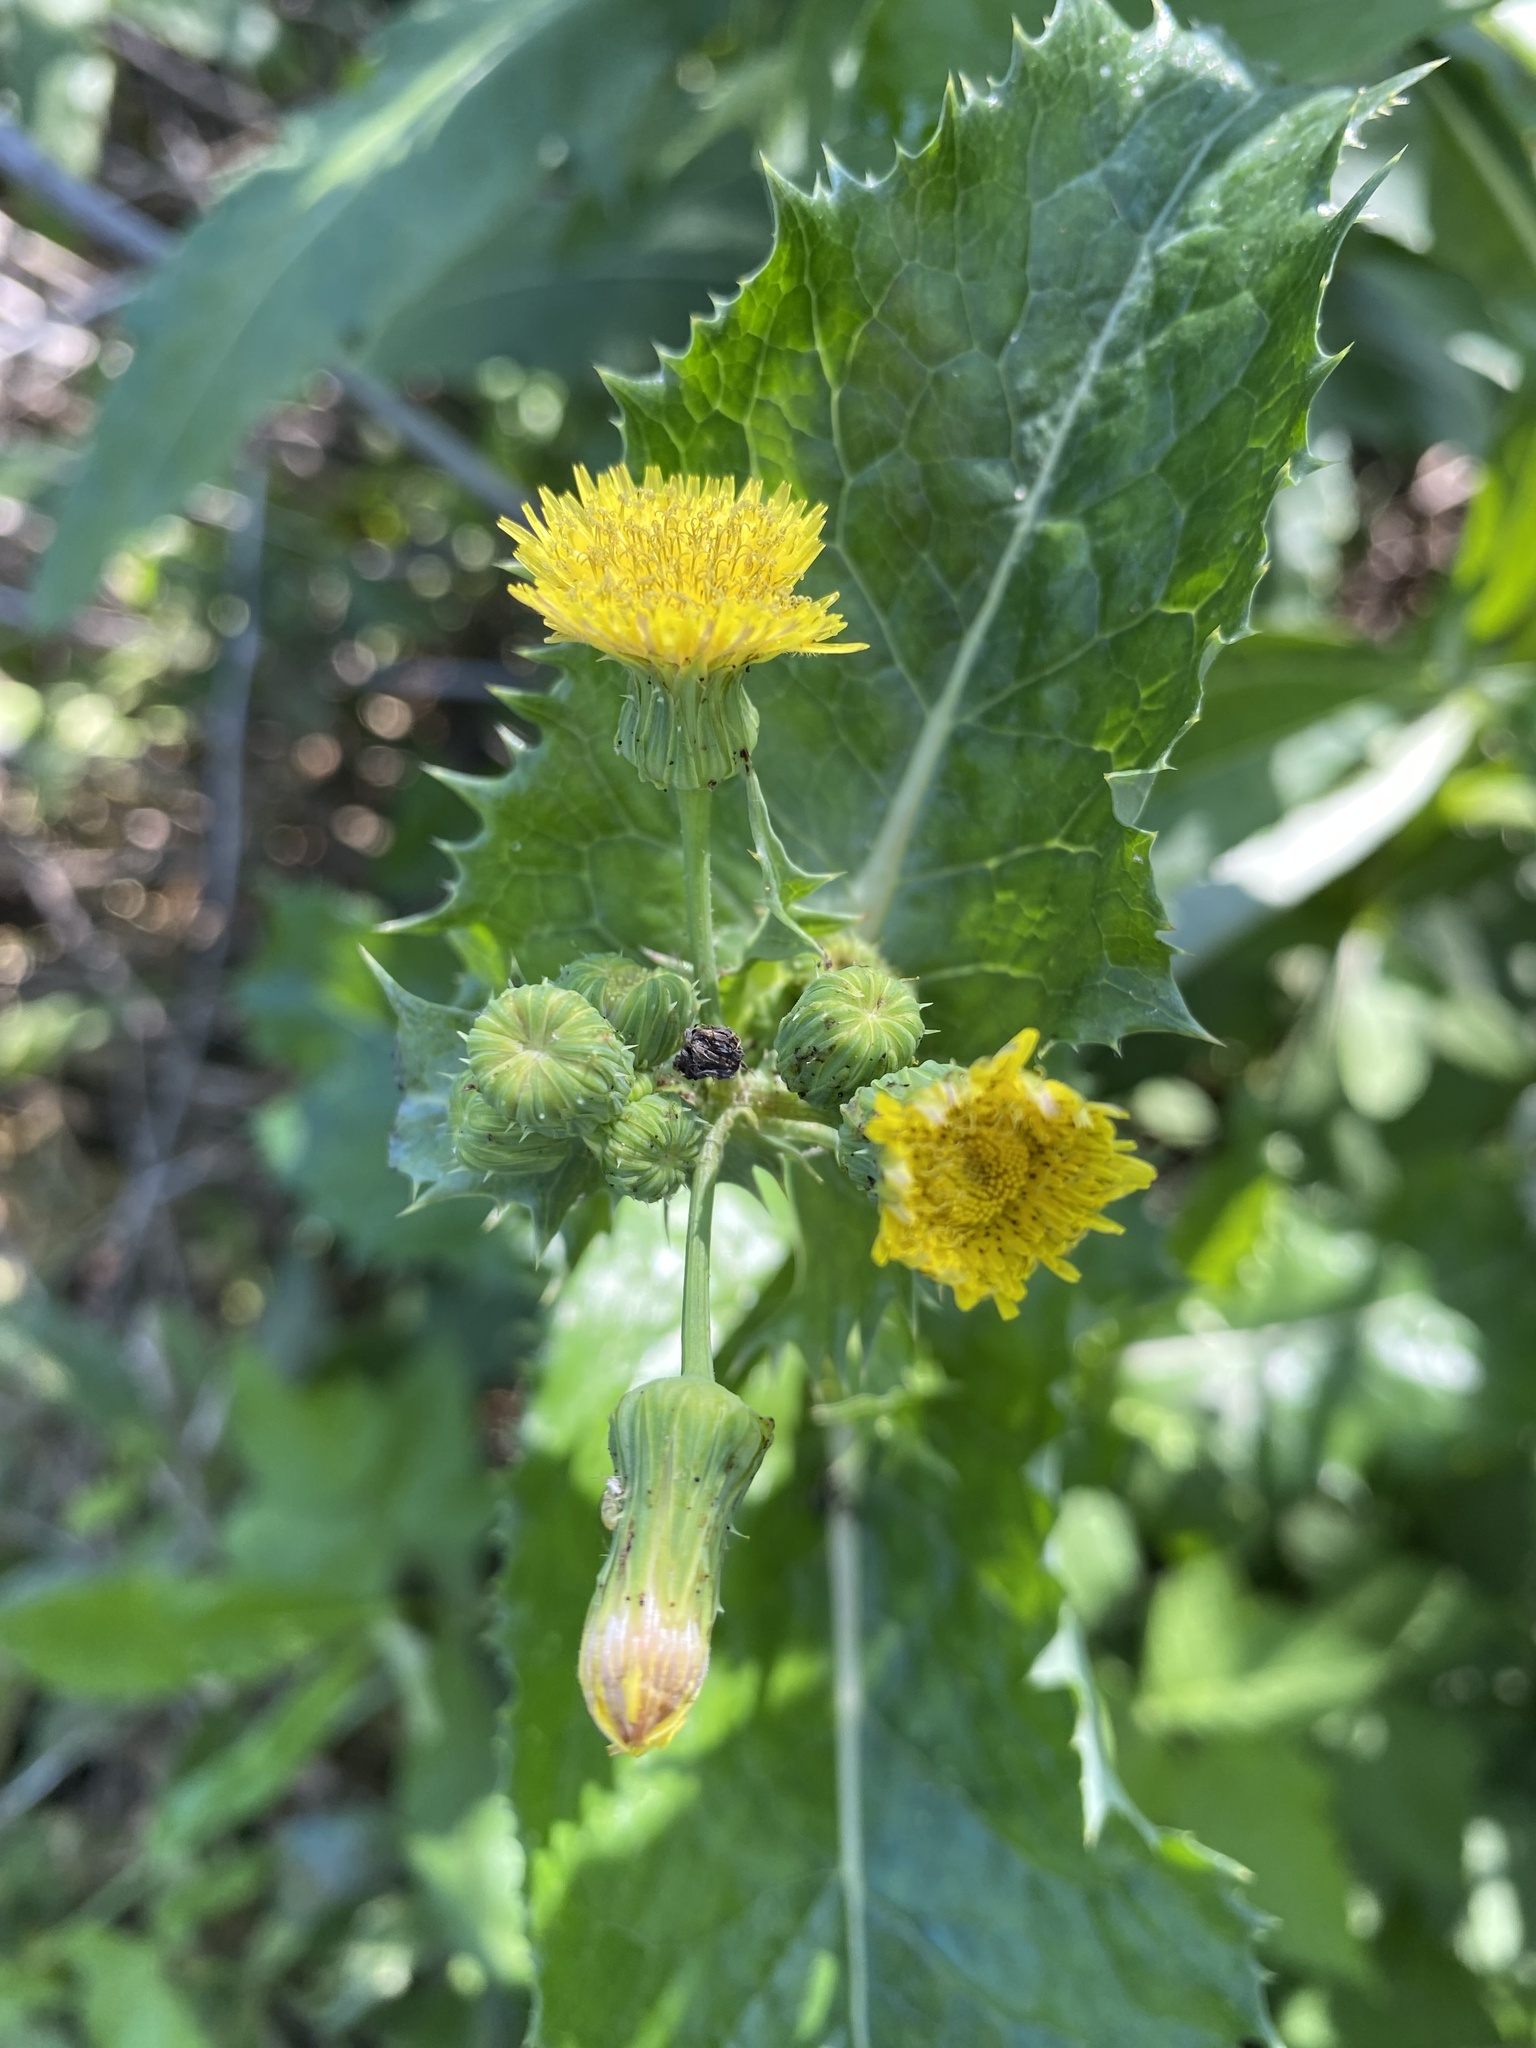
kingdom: Plantae
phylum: Tracheophyta
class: Magnoliopsida
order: Asterales
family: Asteraceae
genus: Sonchus
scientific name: Sonchus asper
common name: Prickly sow-thistle
